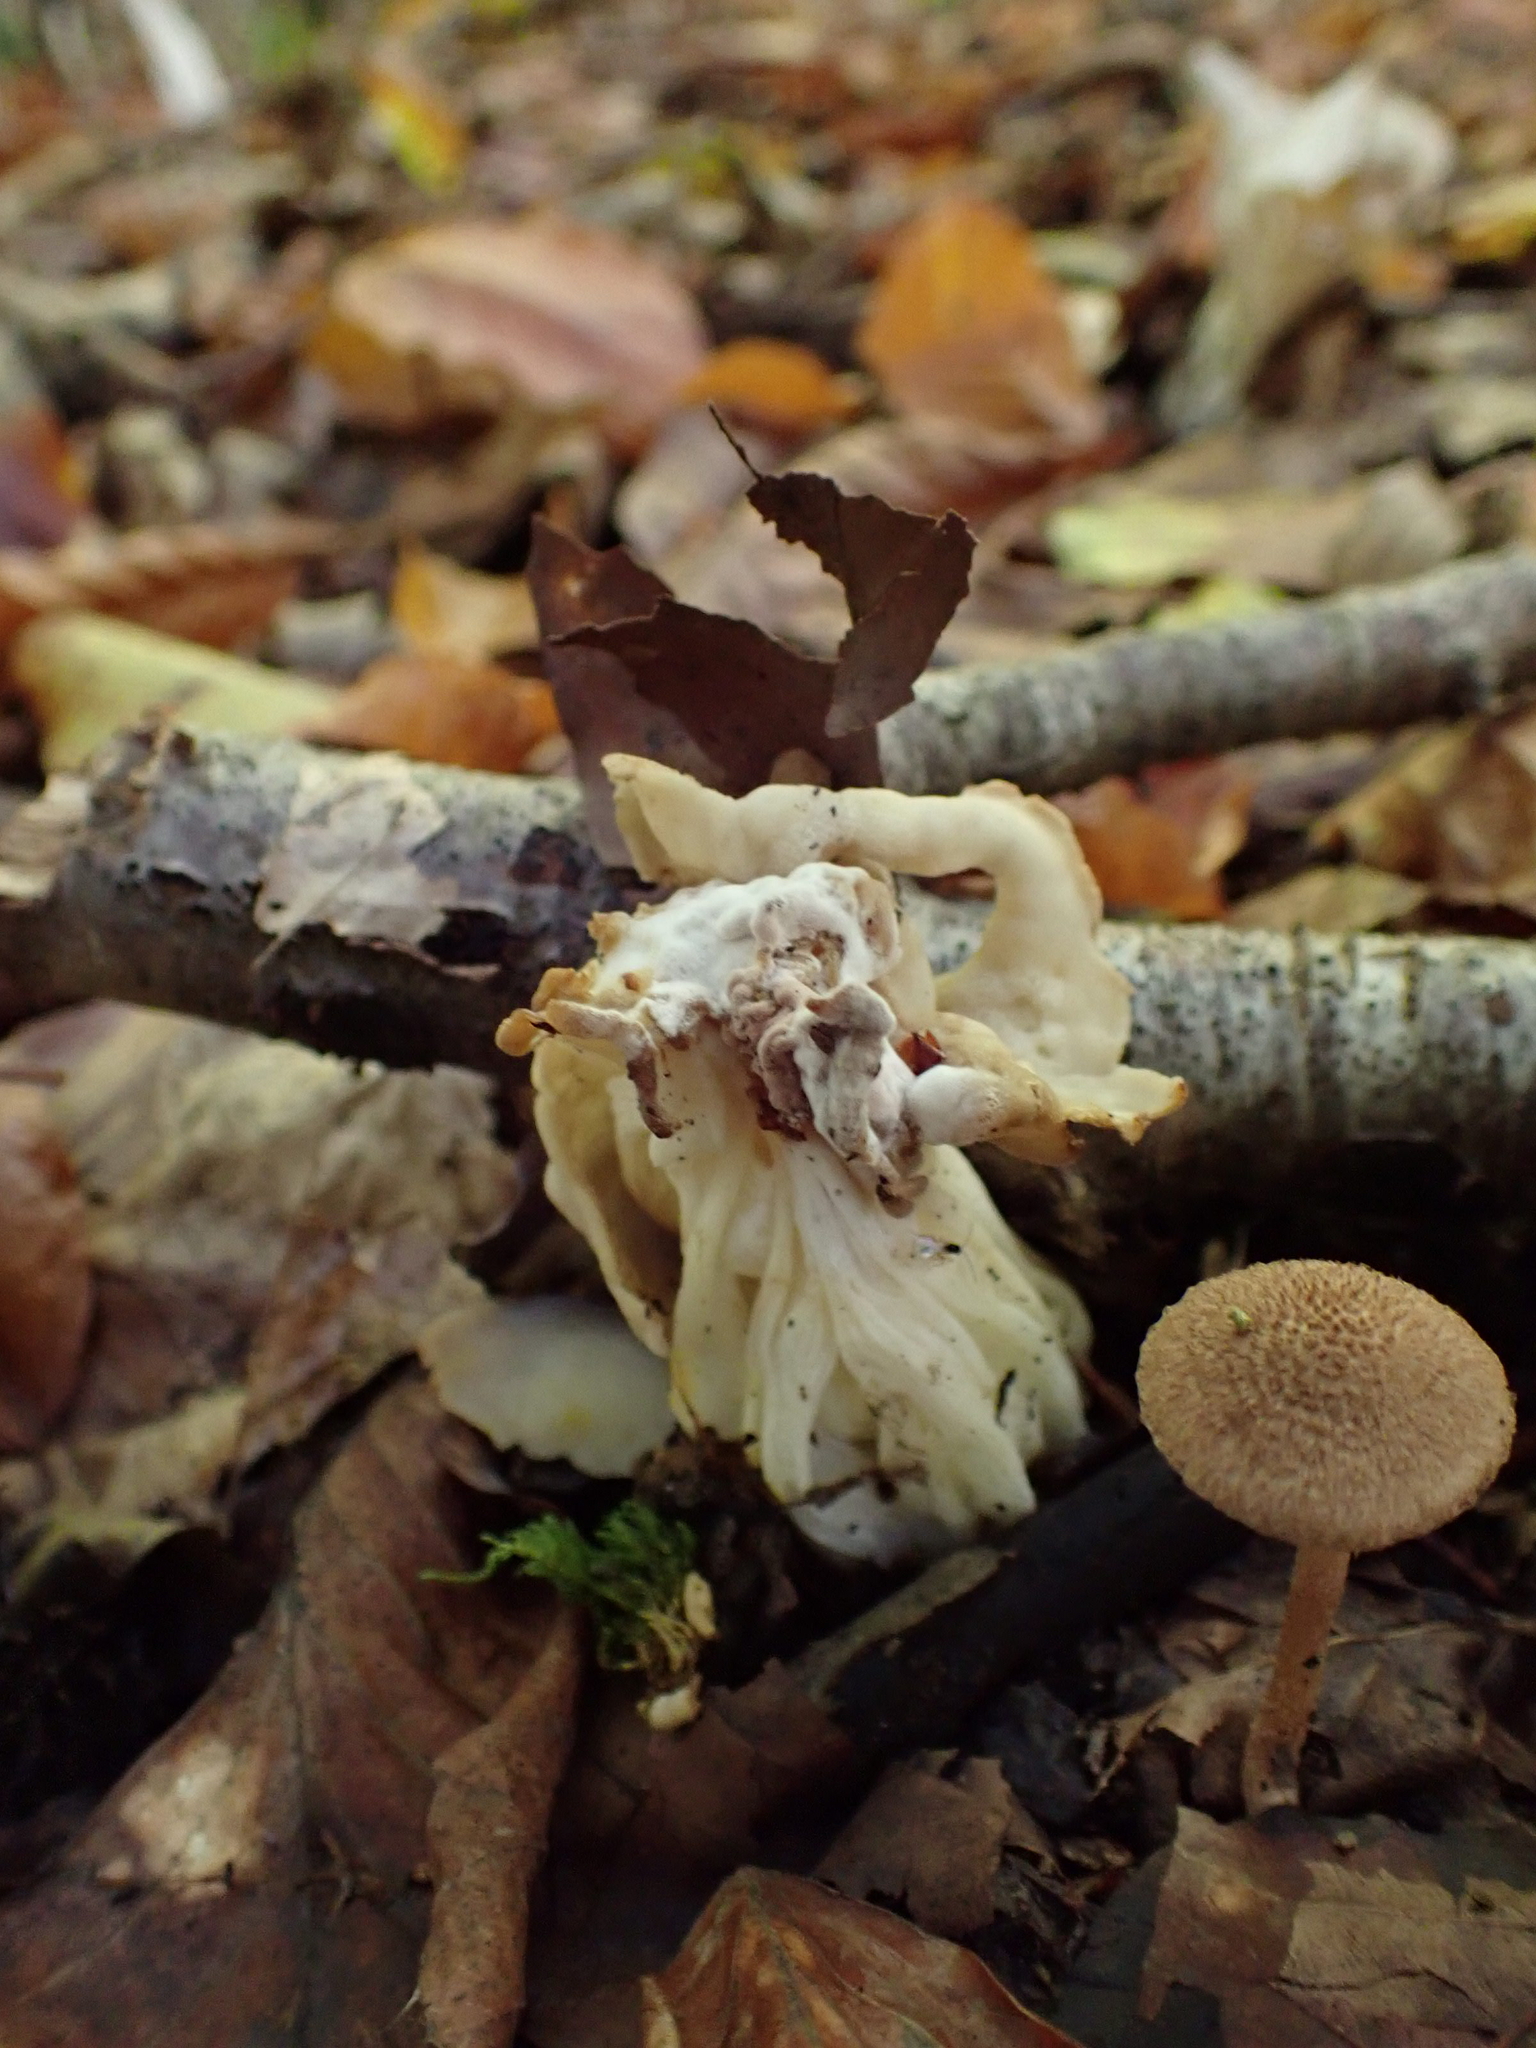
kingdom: Fungi
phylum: Ascomycota
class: Pezizomycetes
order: Pezizales
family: Helvellaceae
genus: Helvella
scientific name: Helvella crispa
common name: White saddle
